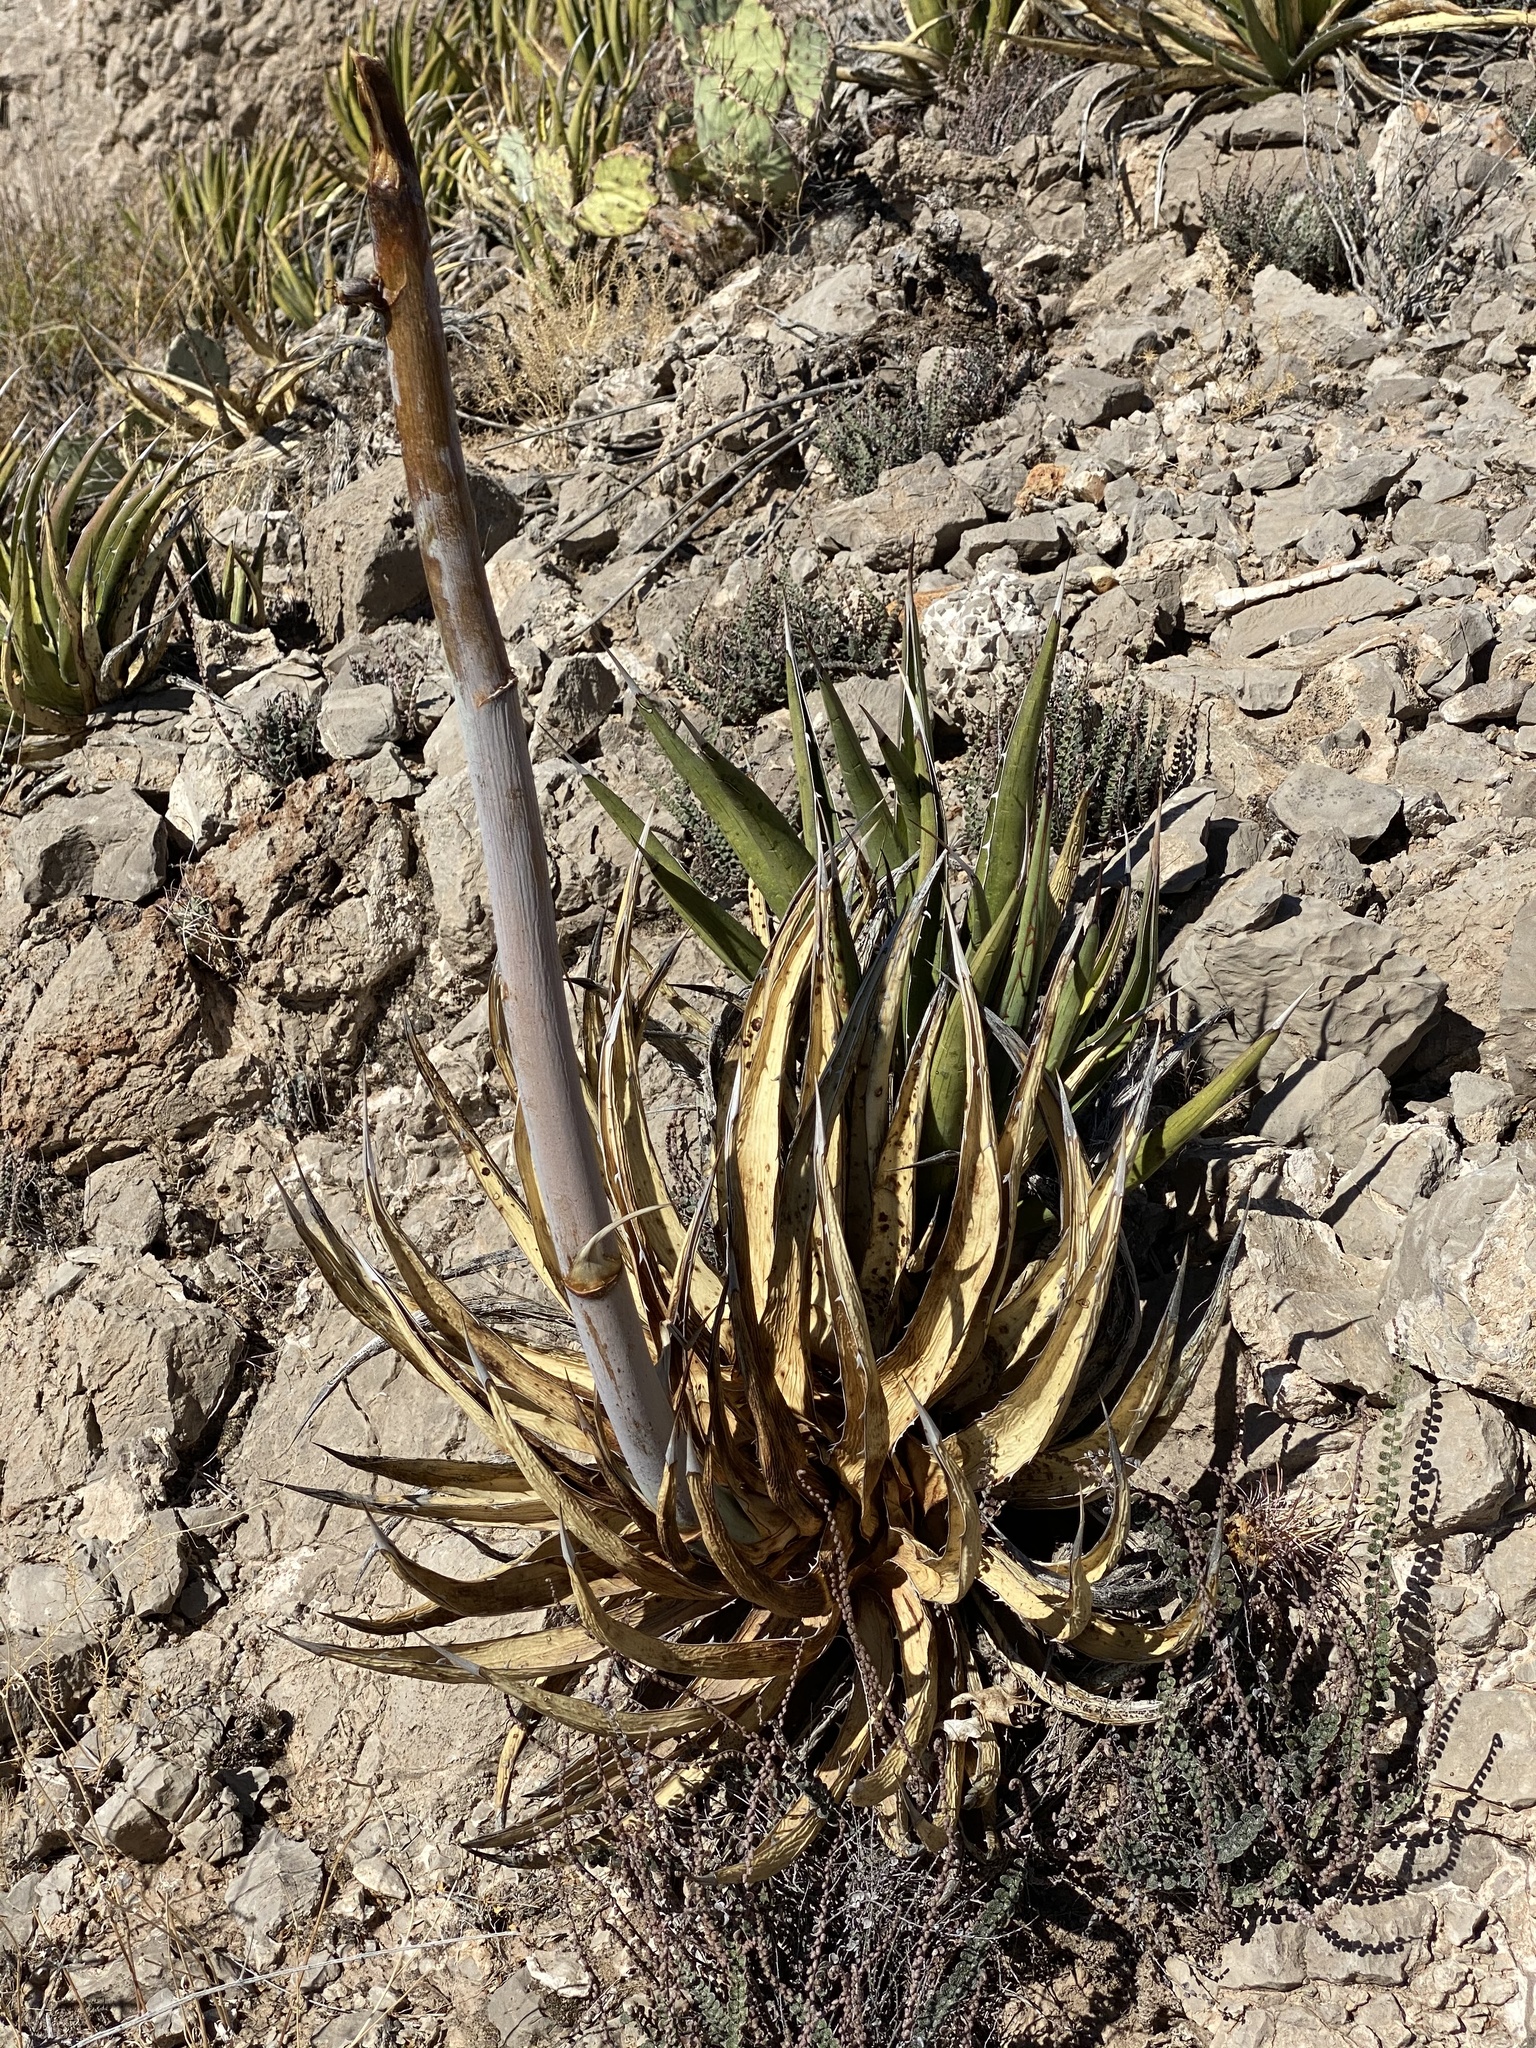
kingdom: Plantae
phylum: Tracheophyta
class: Liliopsida
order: Asparagales
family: Asparagaceae
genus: Agave
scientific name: Agave lechuguilla
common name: Lecheguilla agave
